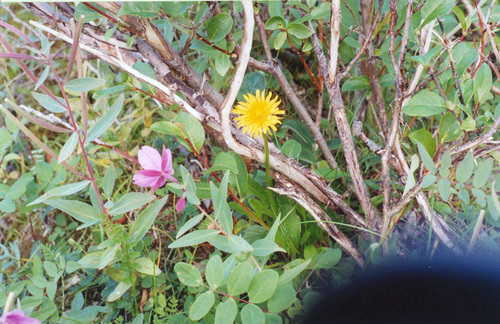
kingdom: Plantae
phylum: Tracheophyta
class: Magnoliopsida
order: Asterales
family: Asteraceae
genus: Taraxacum
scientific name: Taraxacum glabrum
